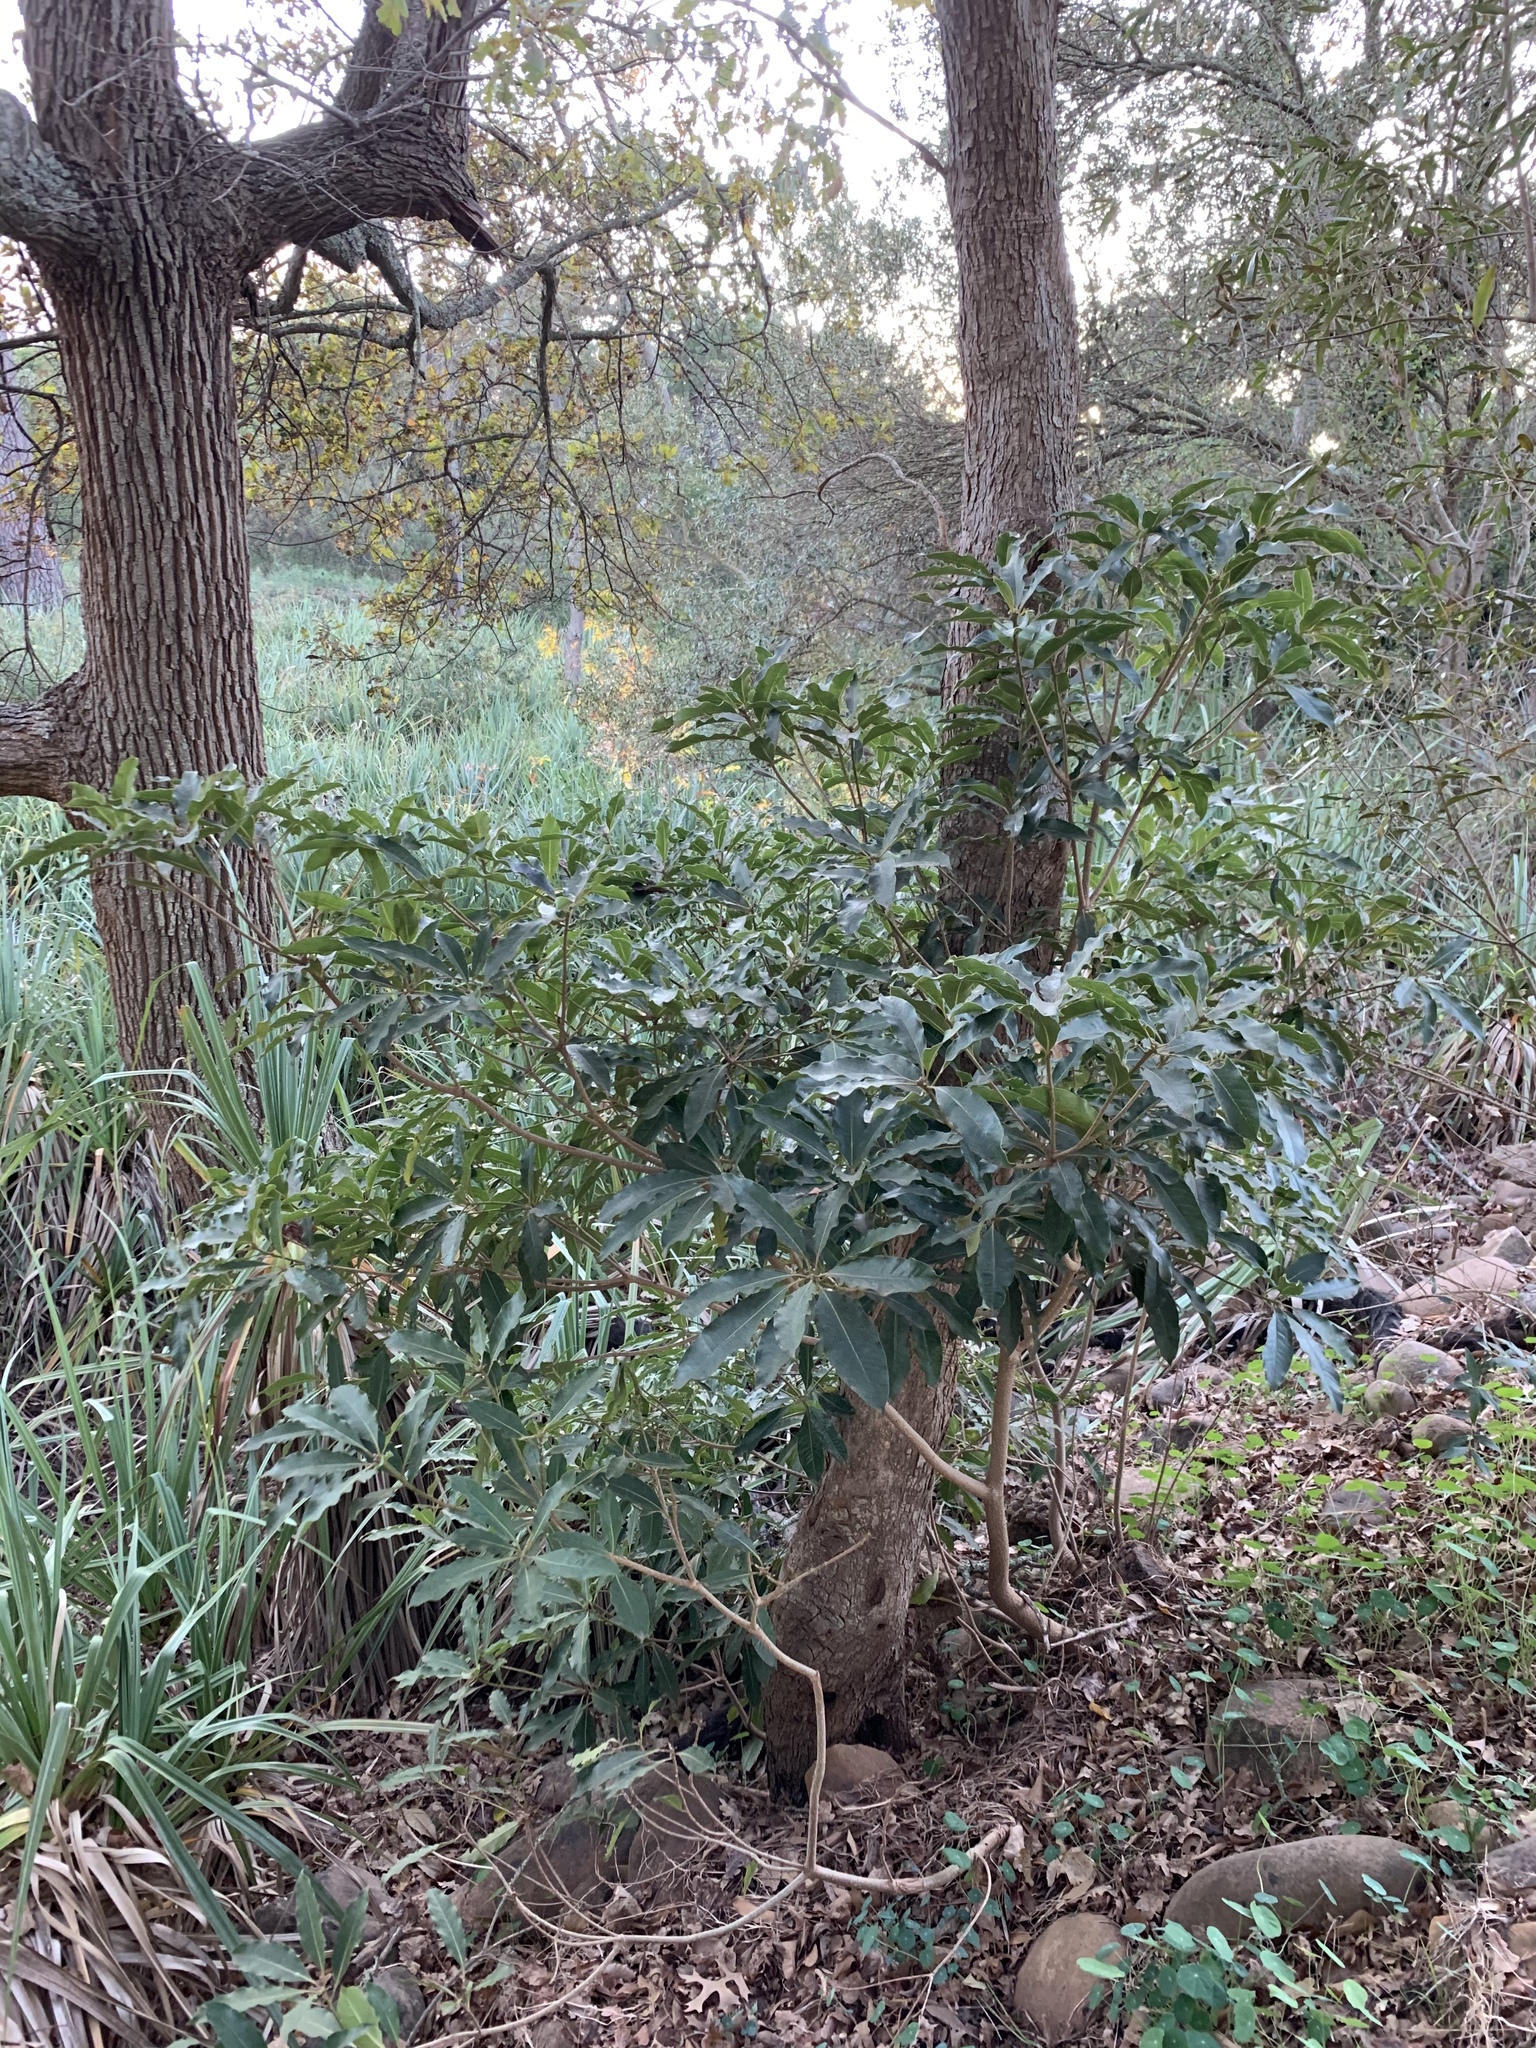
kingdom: Plantae
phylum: Tracheophyta
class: Magnoliopsida
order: Apiales
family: Pittosporaceae
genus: Pittosporum
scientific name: Pittosporum undulatum
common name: Australian cheesewood
